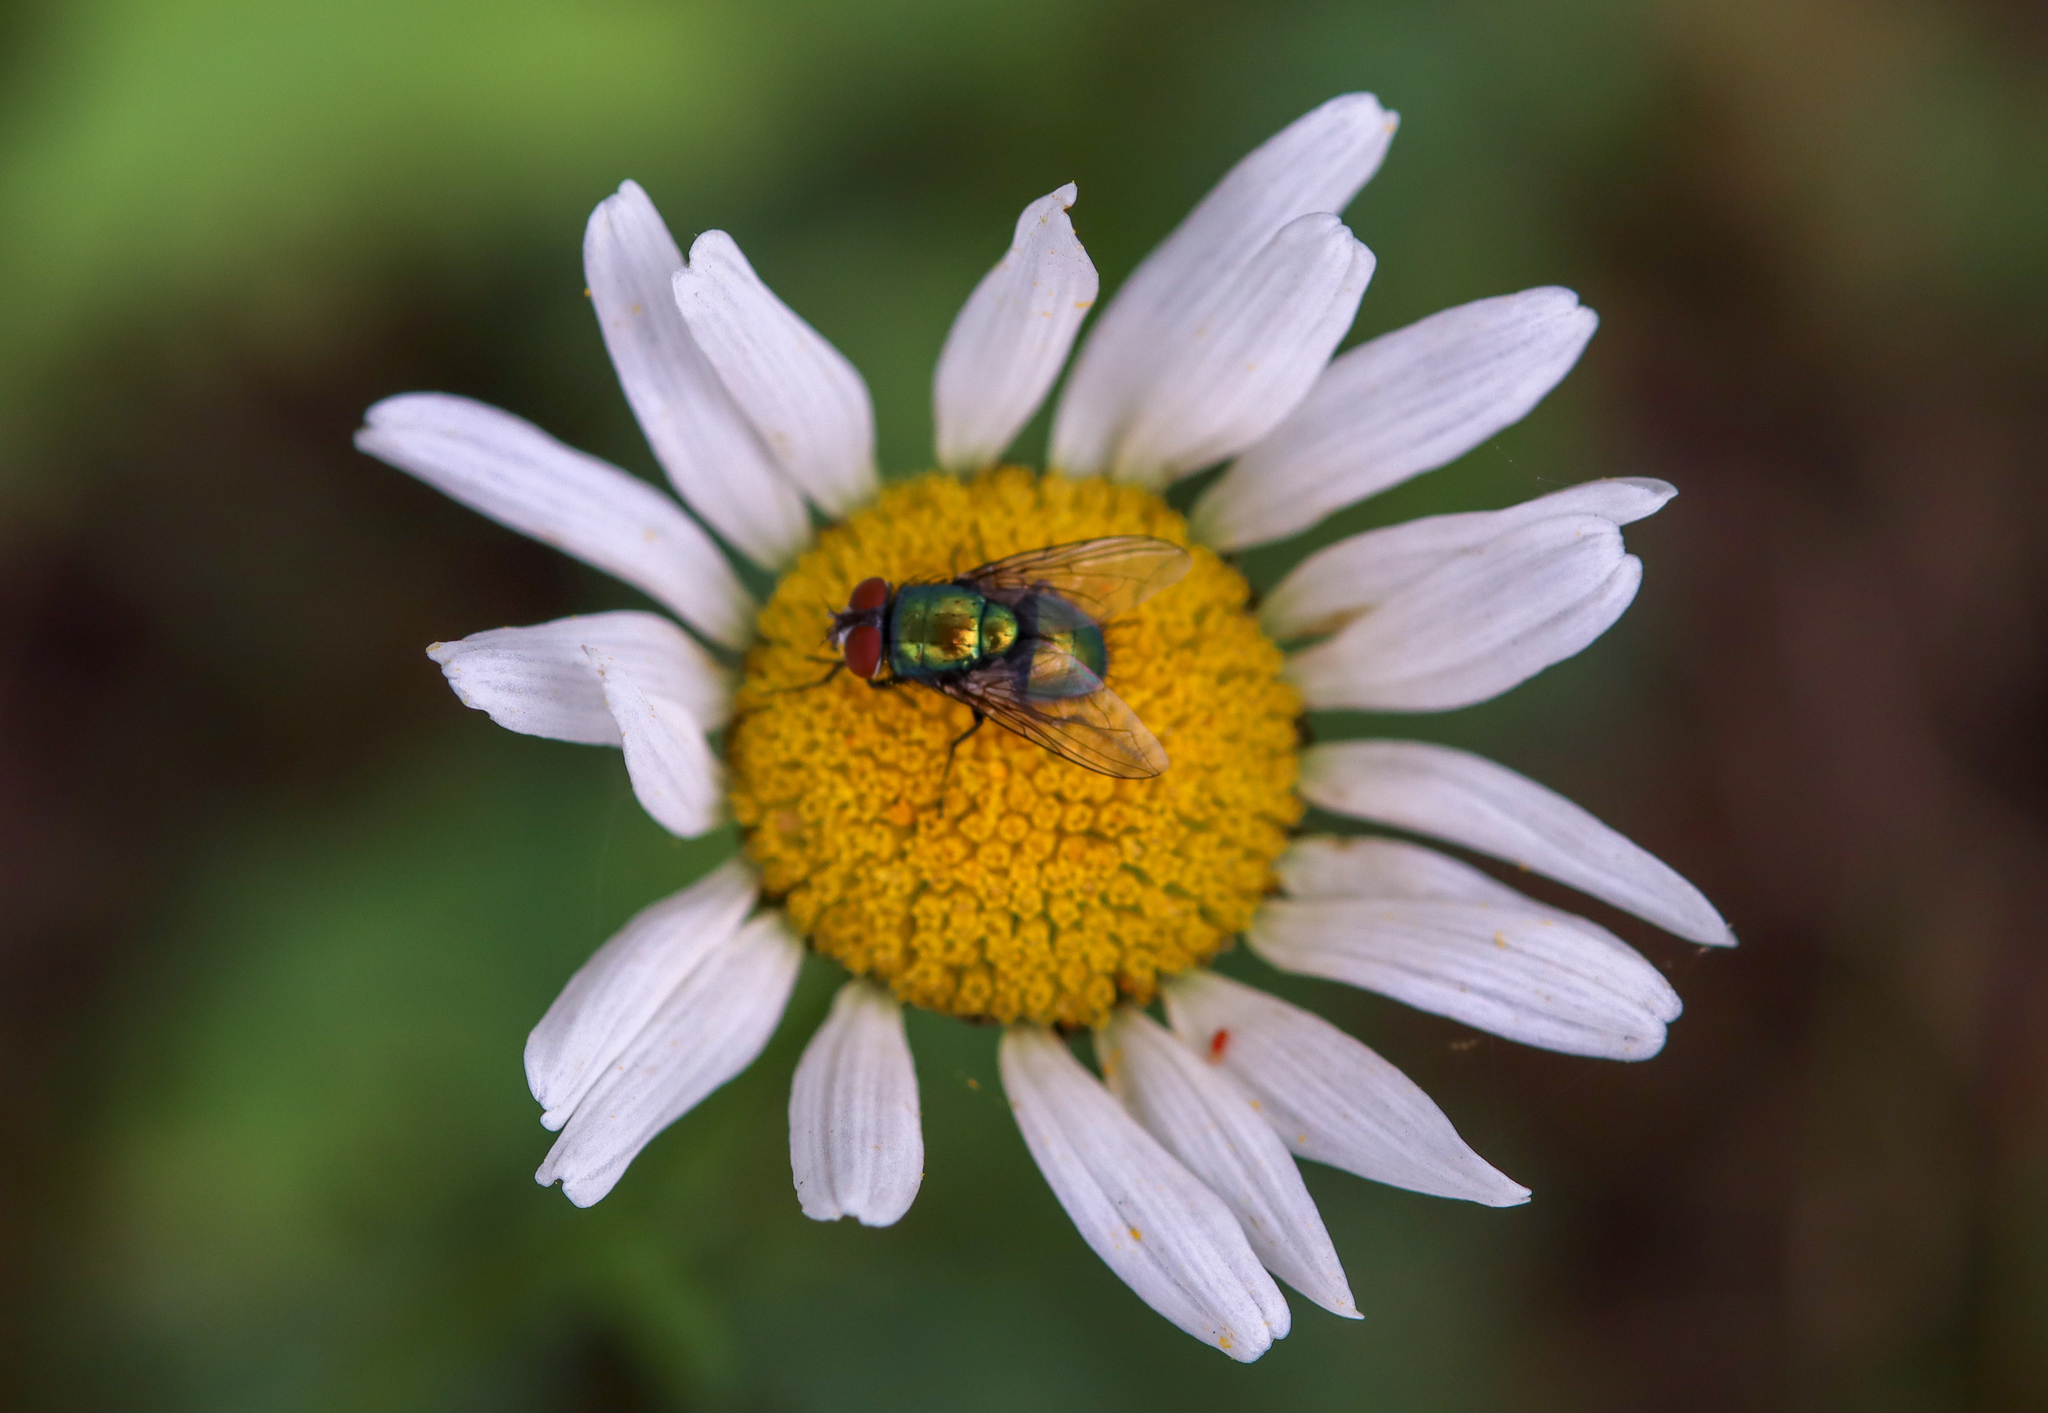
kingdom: Animalia
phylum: Arthropoda
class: Insecta
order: Diptera
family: Calliphoridae
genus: Lucilia
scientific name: Lucilia sericata
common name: Blow fly
